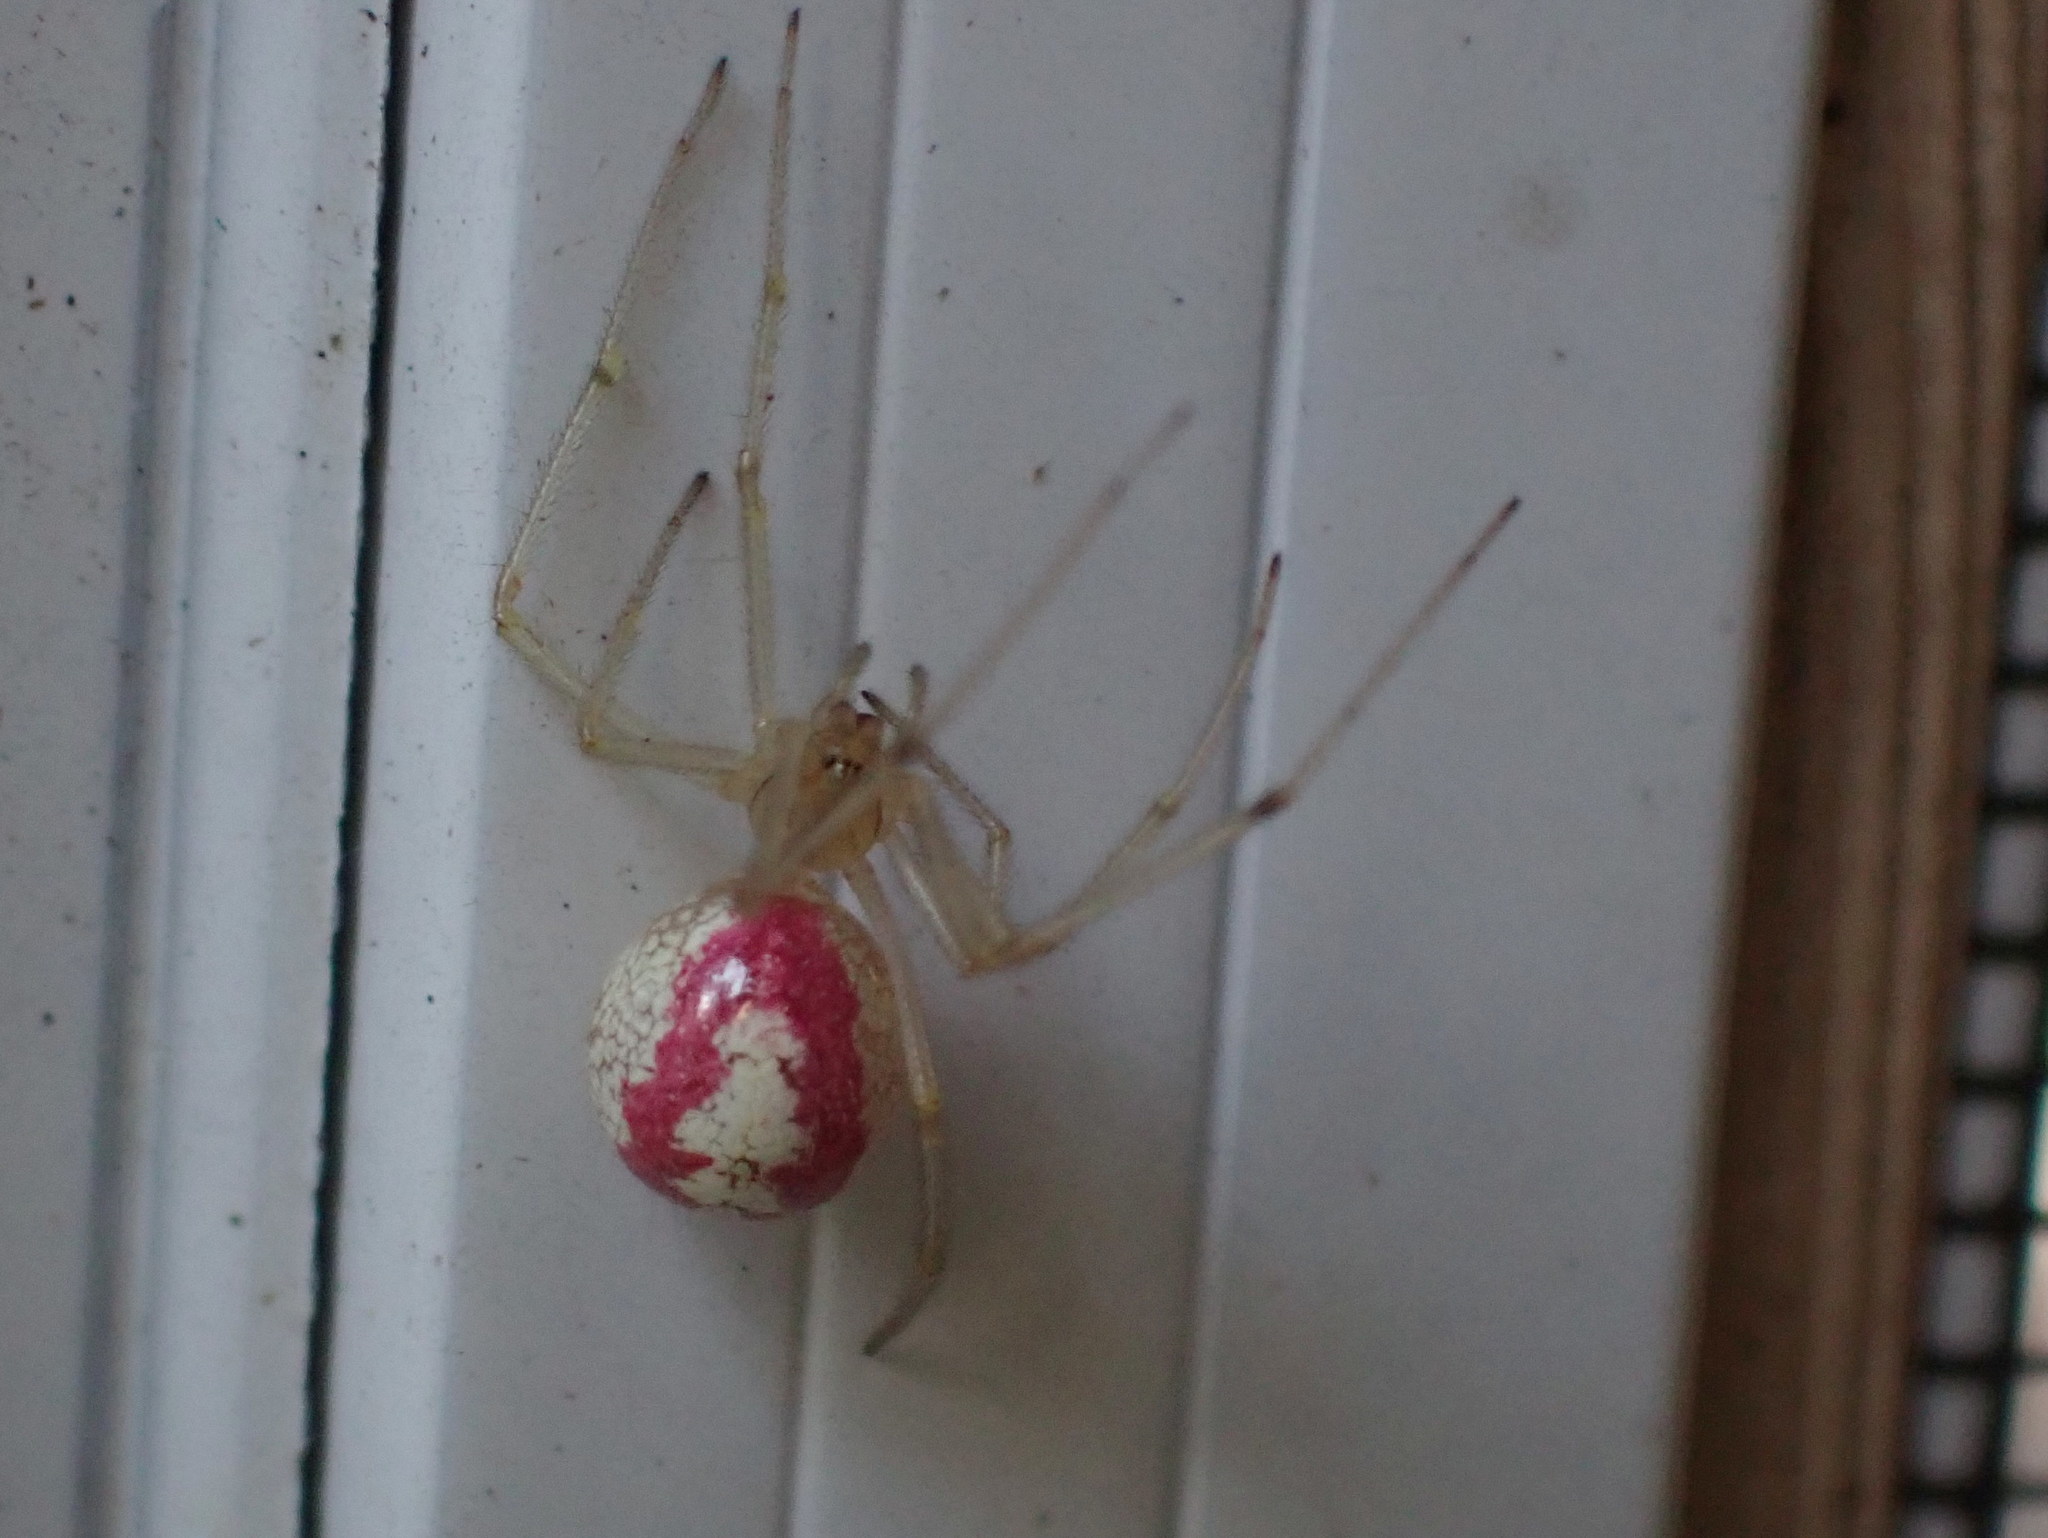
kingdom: Animalia
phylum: Arthropoda
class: Arachnida
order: Araneae
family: Theridiidae
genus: Enoplognatha
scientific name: Enoplognatha ovata
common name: Common candy-striped spider
